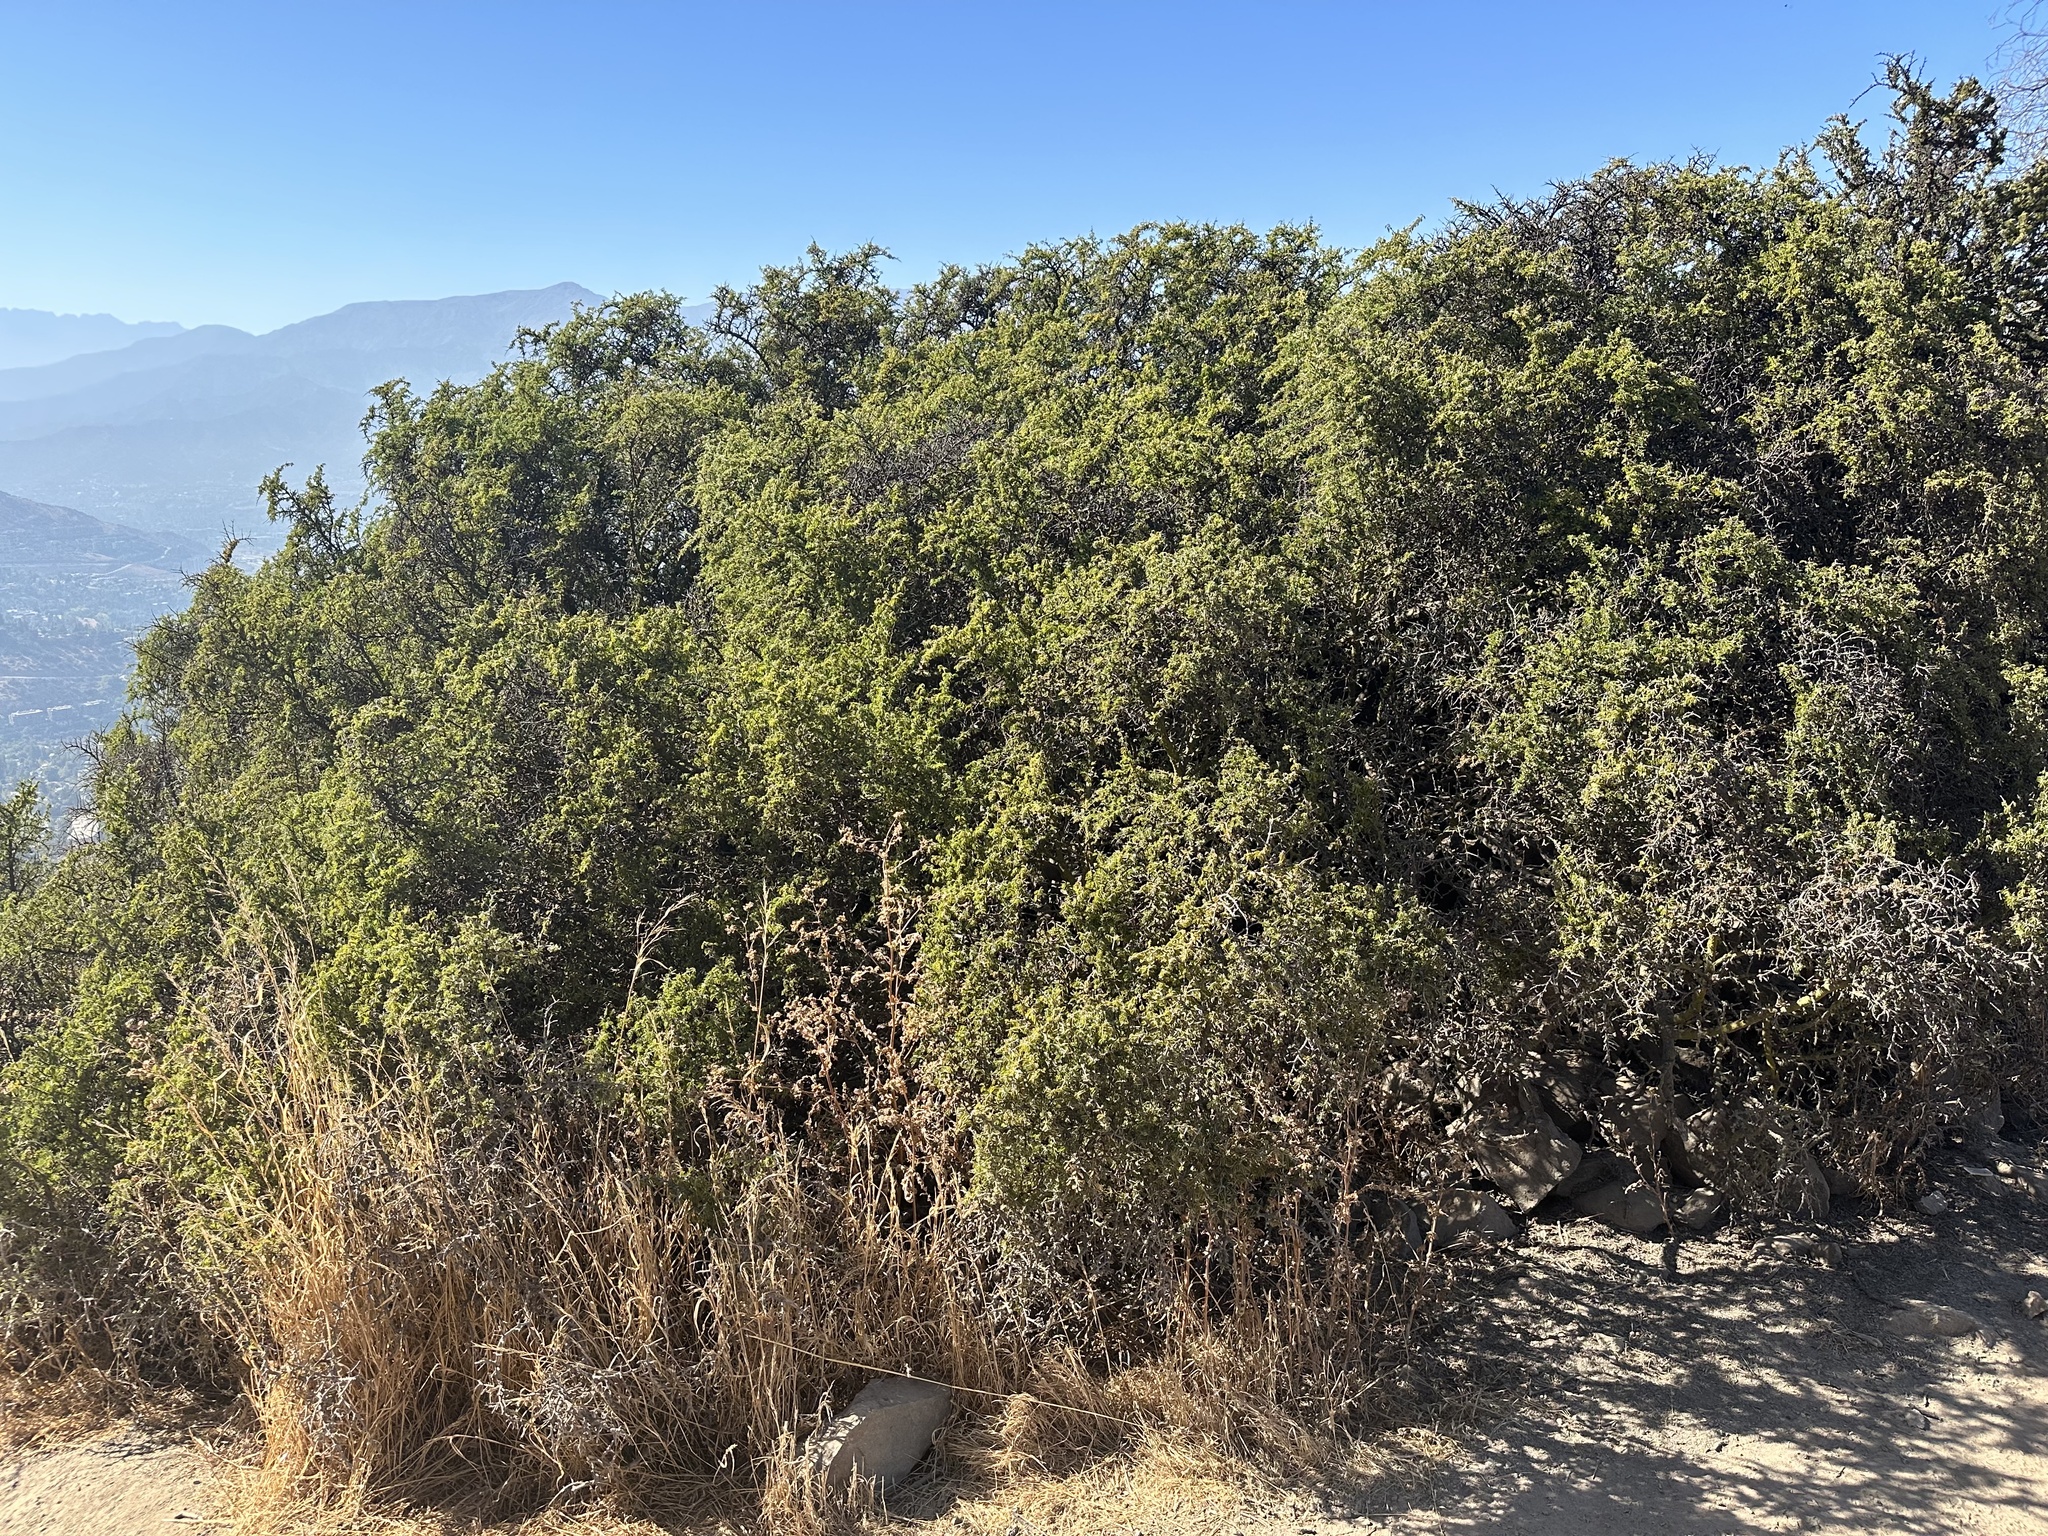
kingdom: Plantae
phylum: Tracheophyta
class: Magnoliopsida
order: Zygophyllales
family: Zygophyllaceae
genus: Porlieria
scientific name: Porlieria chilensis
